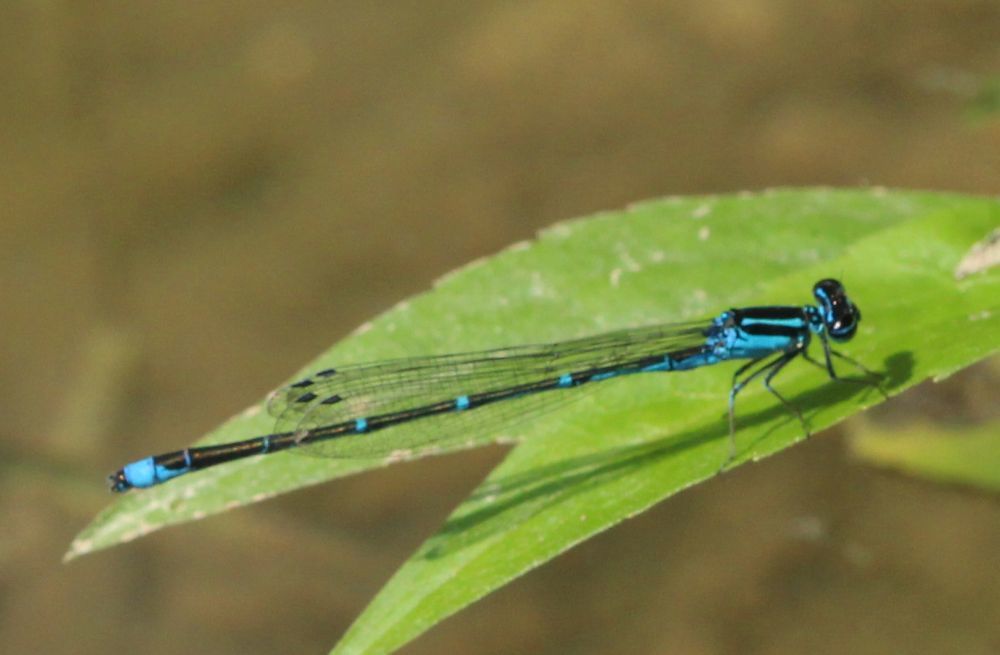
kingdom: Animalia
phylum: Arthropoda
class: Insecta
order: Odonata
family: Coenagrionidae
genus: Enallagma
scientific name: Enallagma exsulans
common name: Stream bluet
